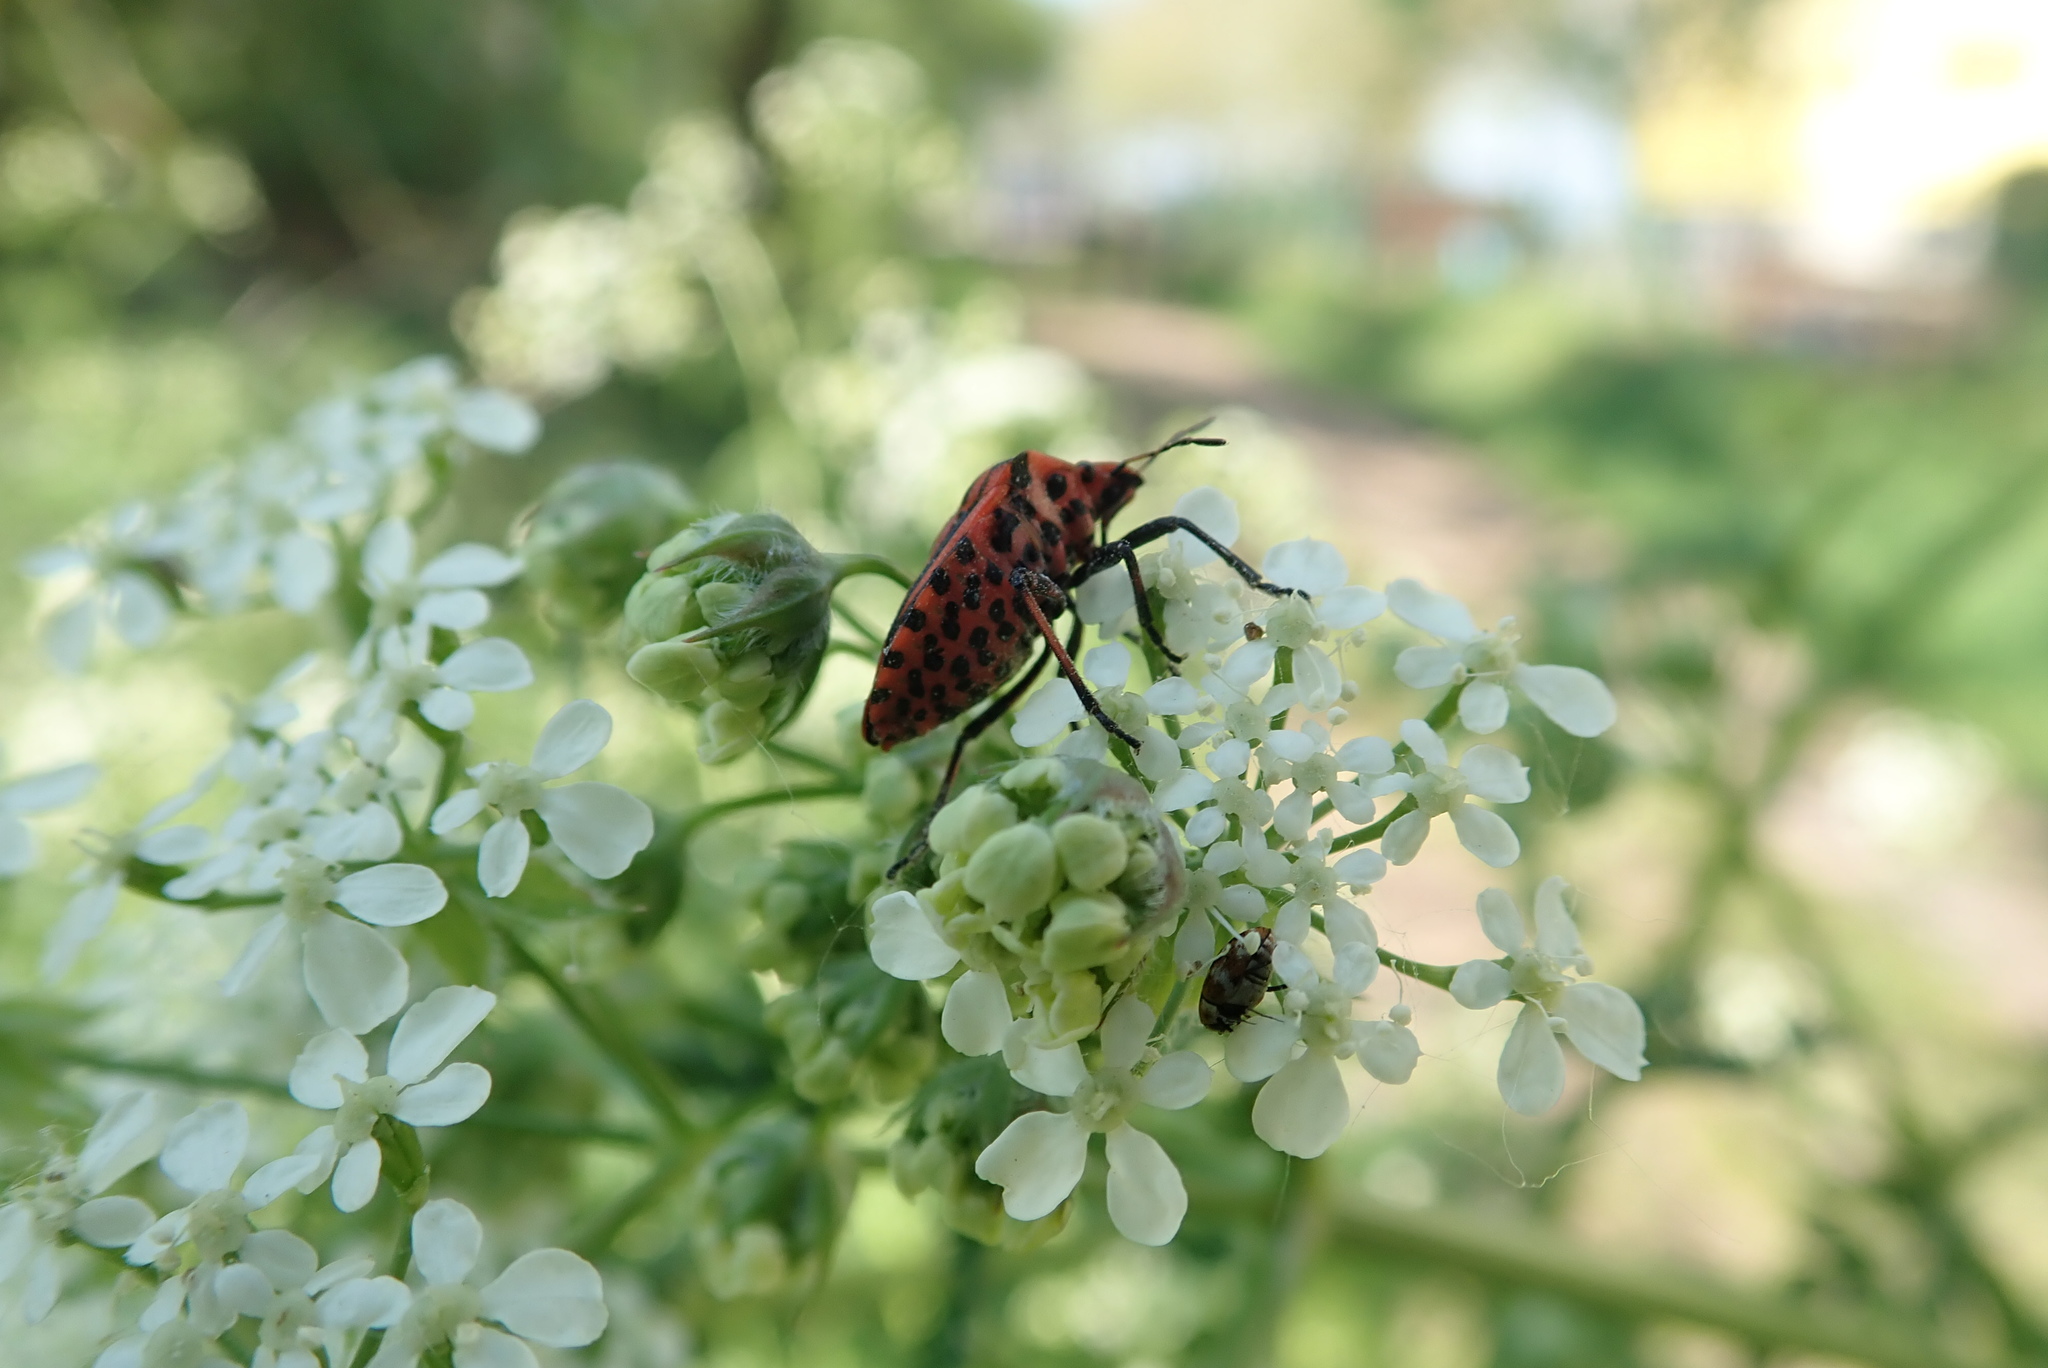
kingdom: Animalia
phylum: Arthropoda
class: Insecta
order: Hemiptera
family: Pentatomidae
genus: Graphosoma
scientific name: Graphosoma italicum
